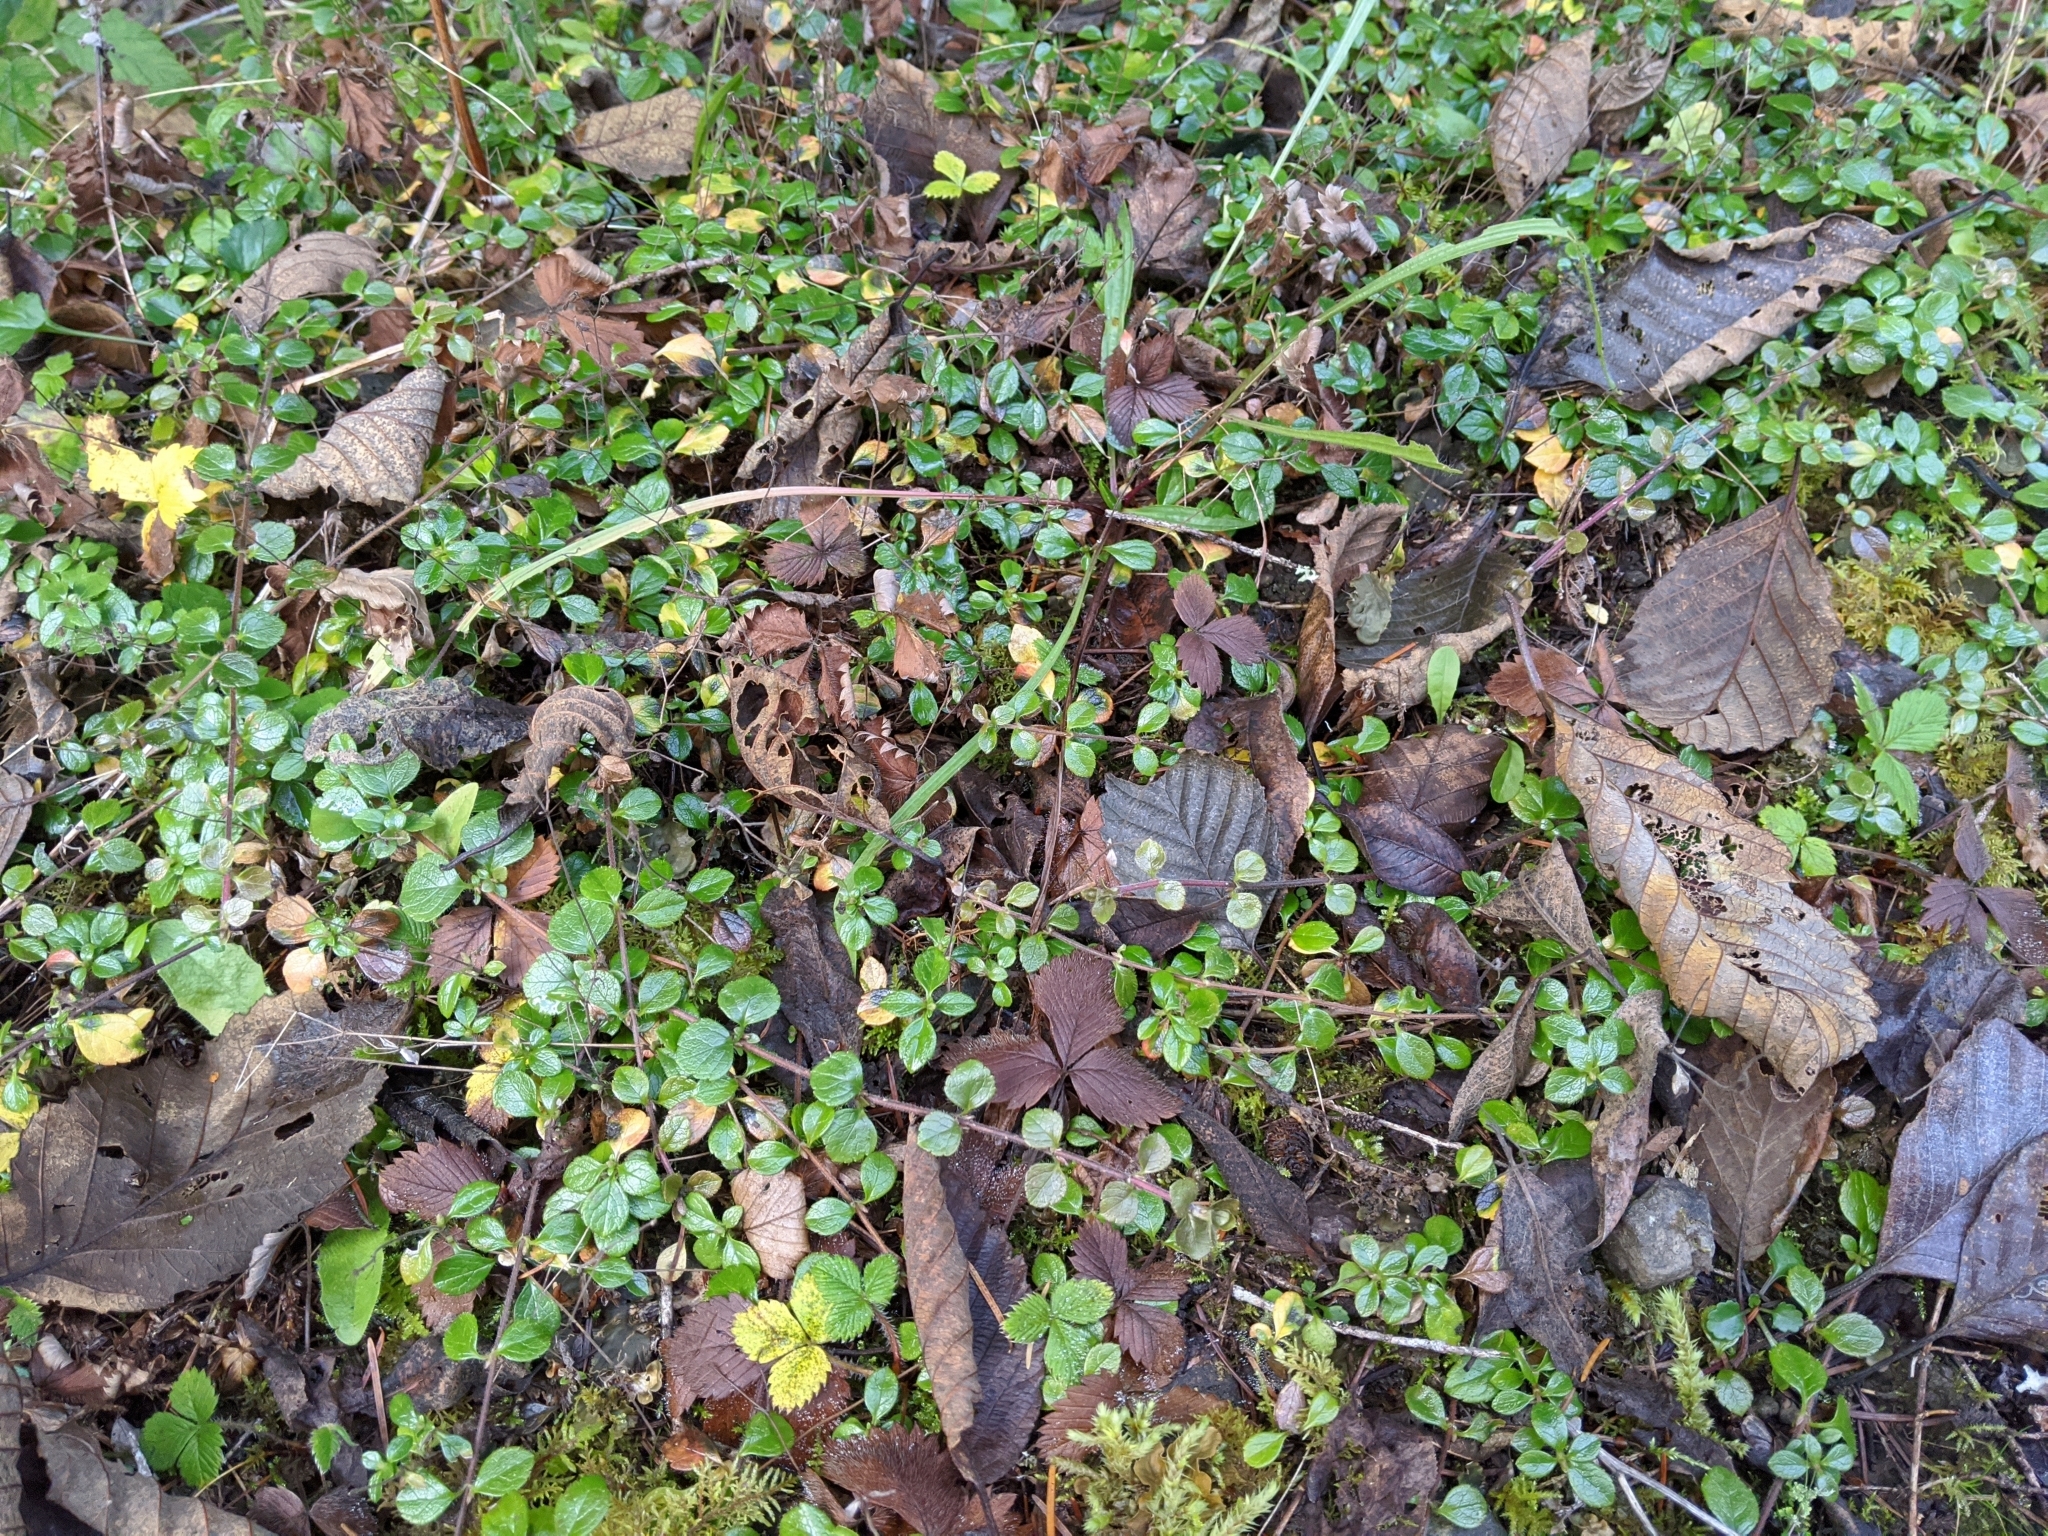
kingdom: Plantae
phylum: Tracheophyta
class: Magnoliopsida
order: Dipsacales
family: Caprifoliaceae
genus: Linnaea
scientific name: Linnaea borealis
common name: Twinflower
